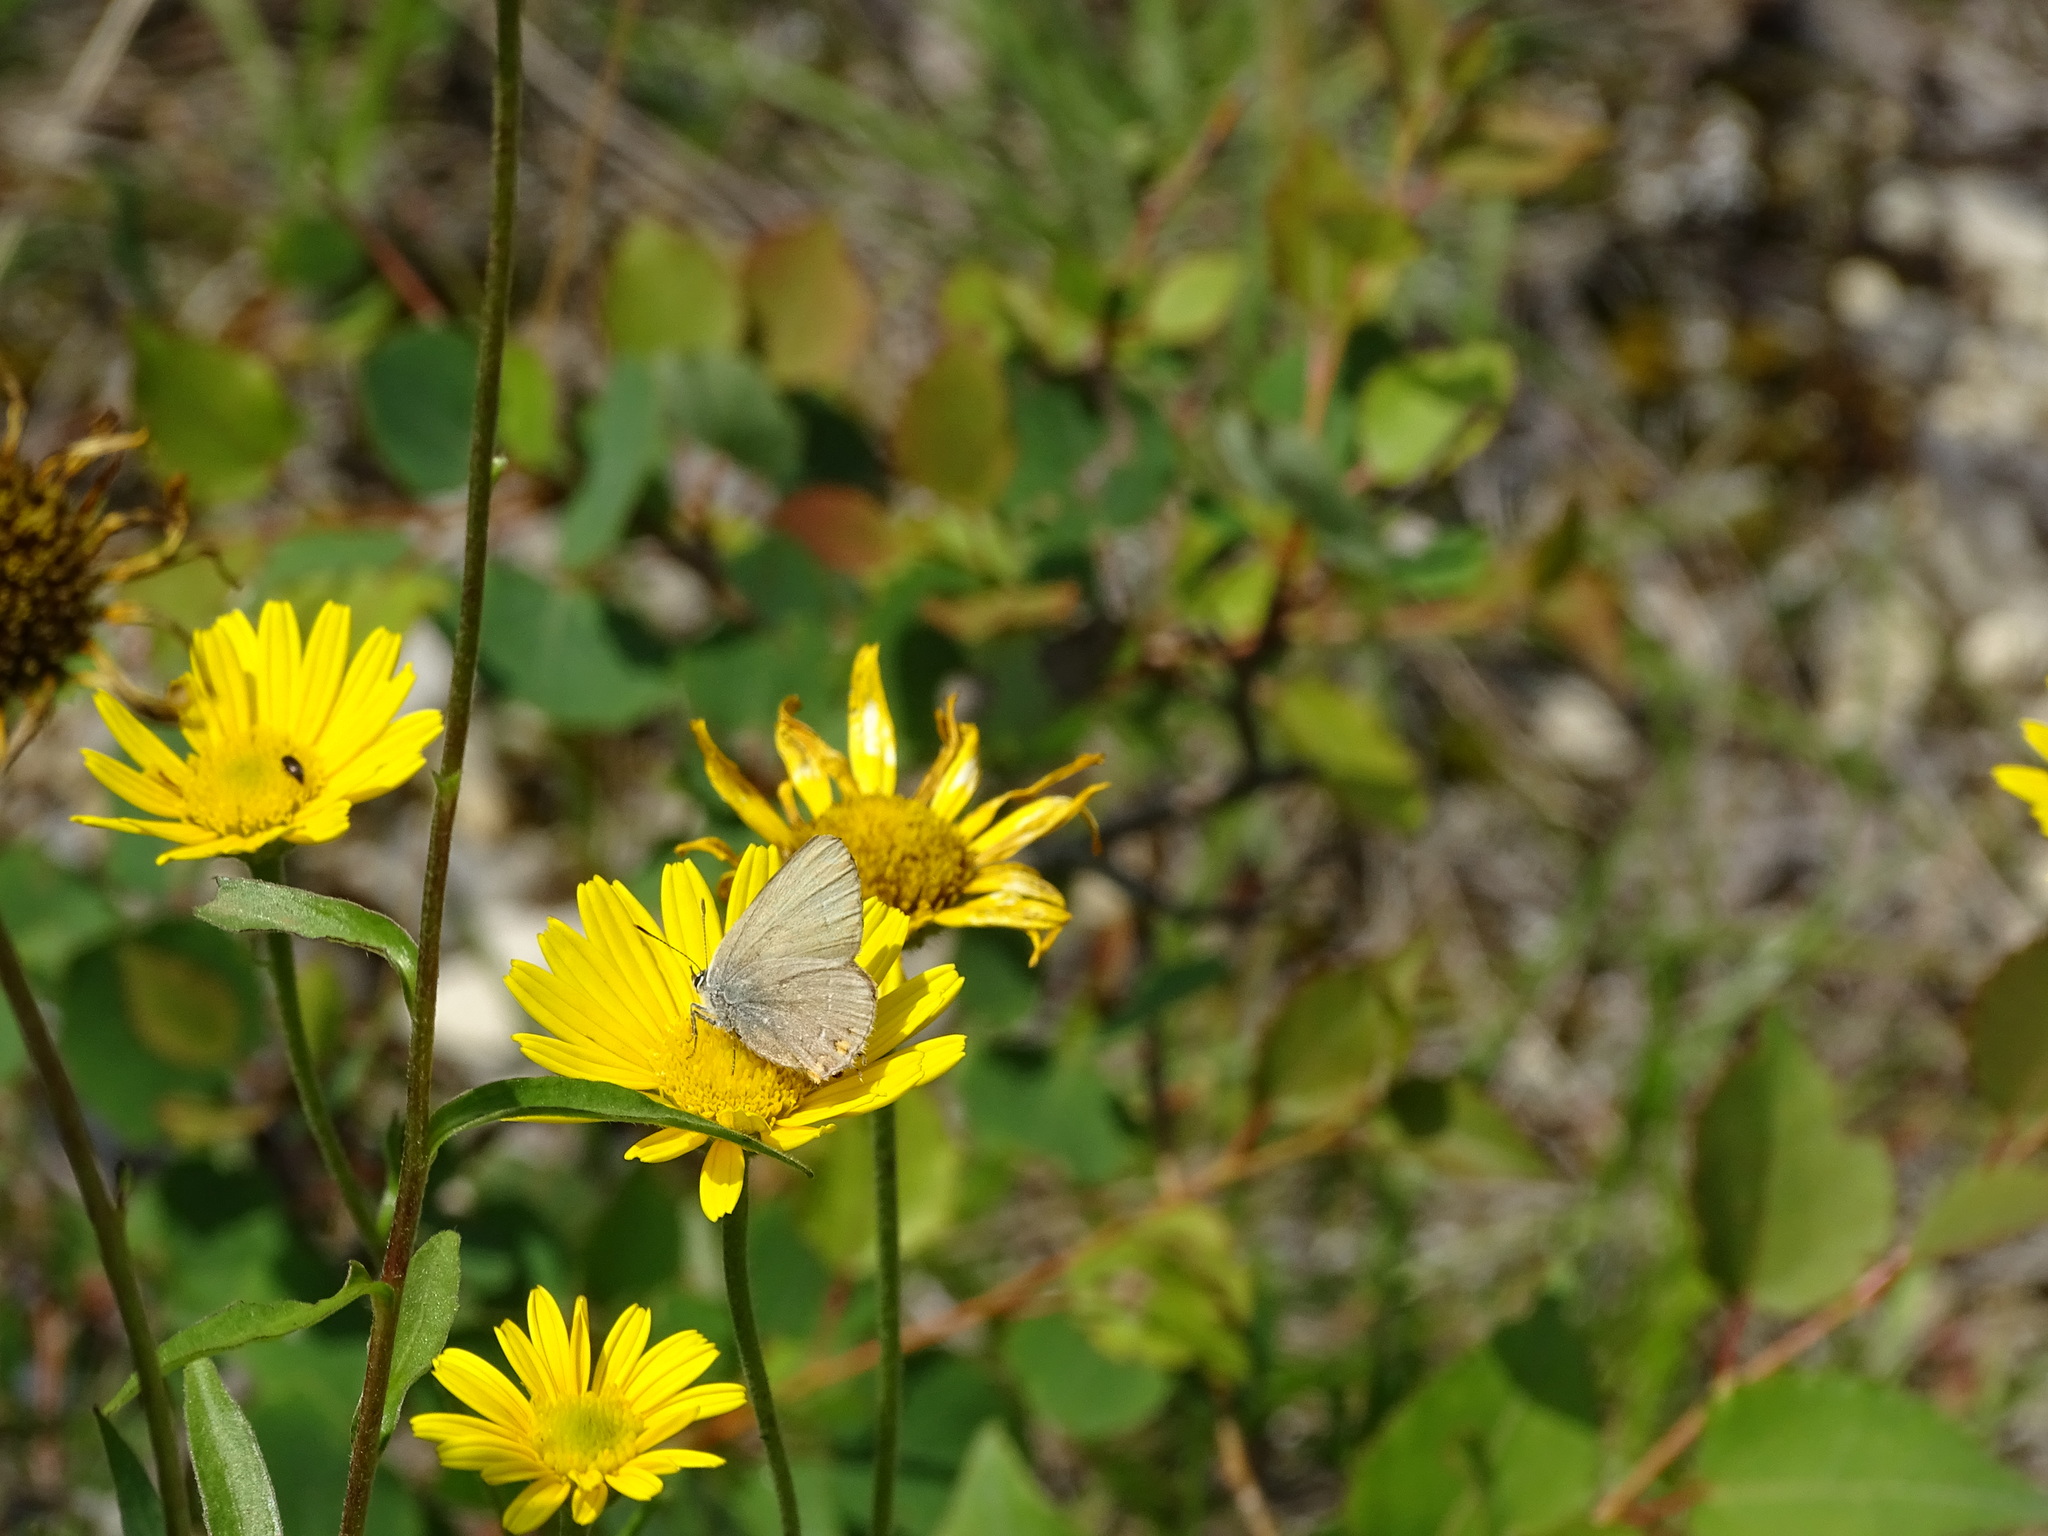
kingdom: Animalia
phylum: Arthropoda
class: Insecta
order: Lepidoptera
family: Lycaenidae
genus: Strymon
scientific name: Strymon acaciae
